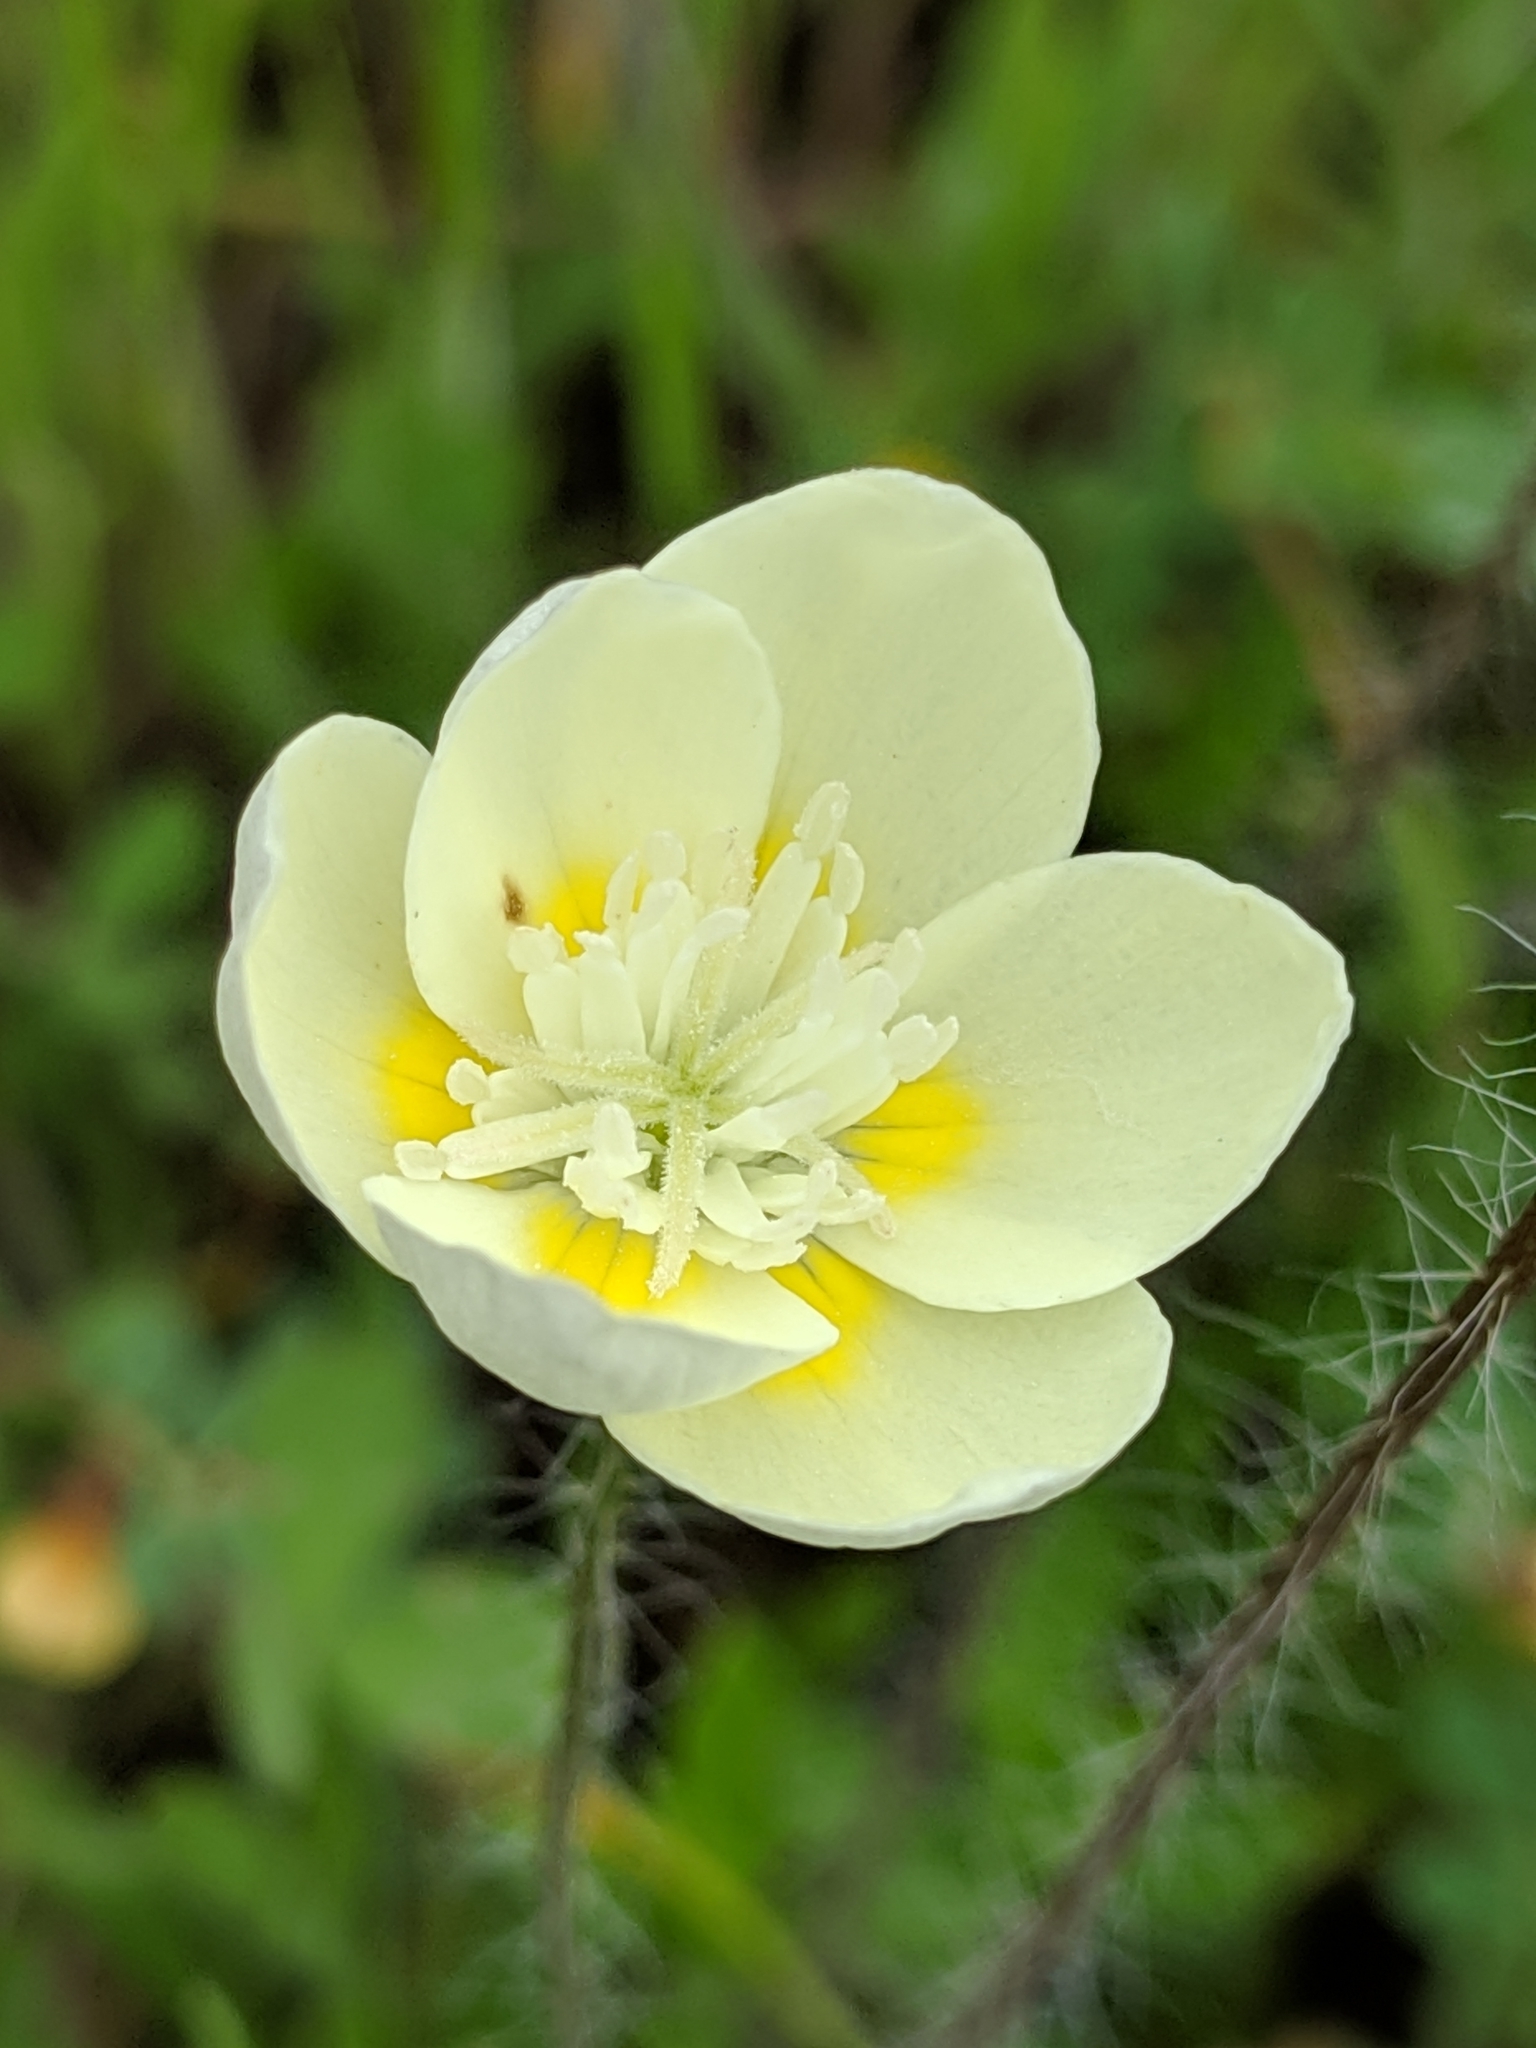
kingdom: Plantae
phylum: Tracheophyta
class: Magnoliopsida
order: Ranunculales
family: Papaveraceae
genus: Platystemon
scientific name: Platystemon californicus
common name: Cream-cups
